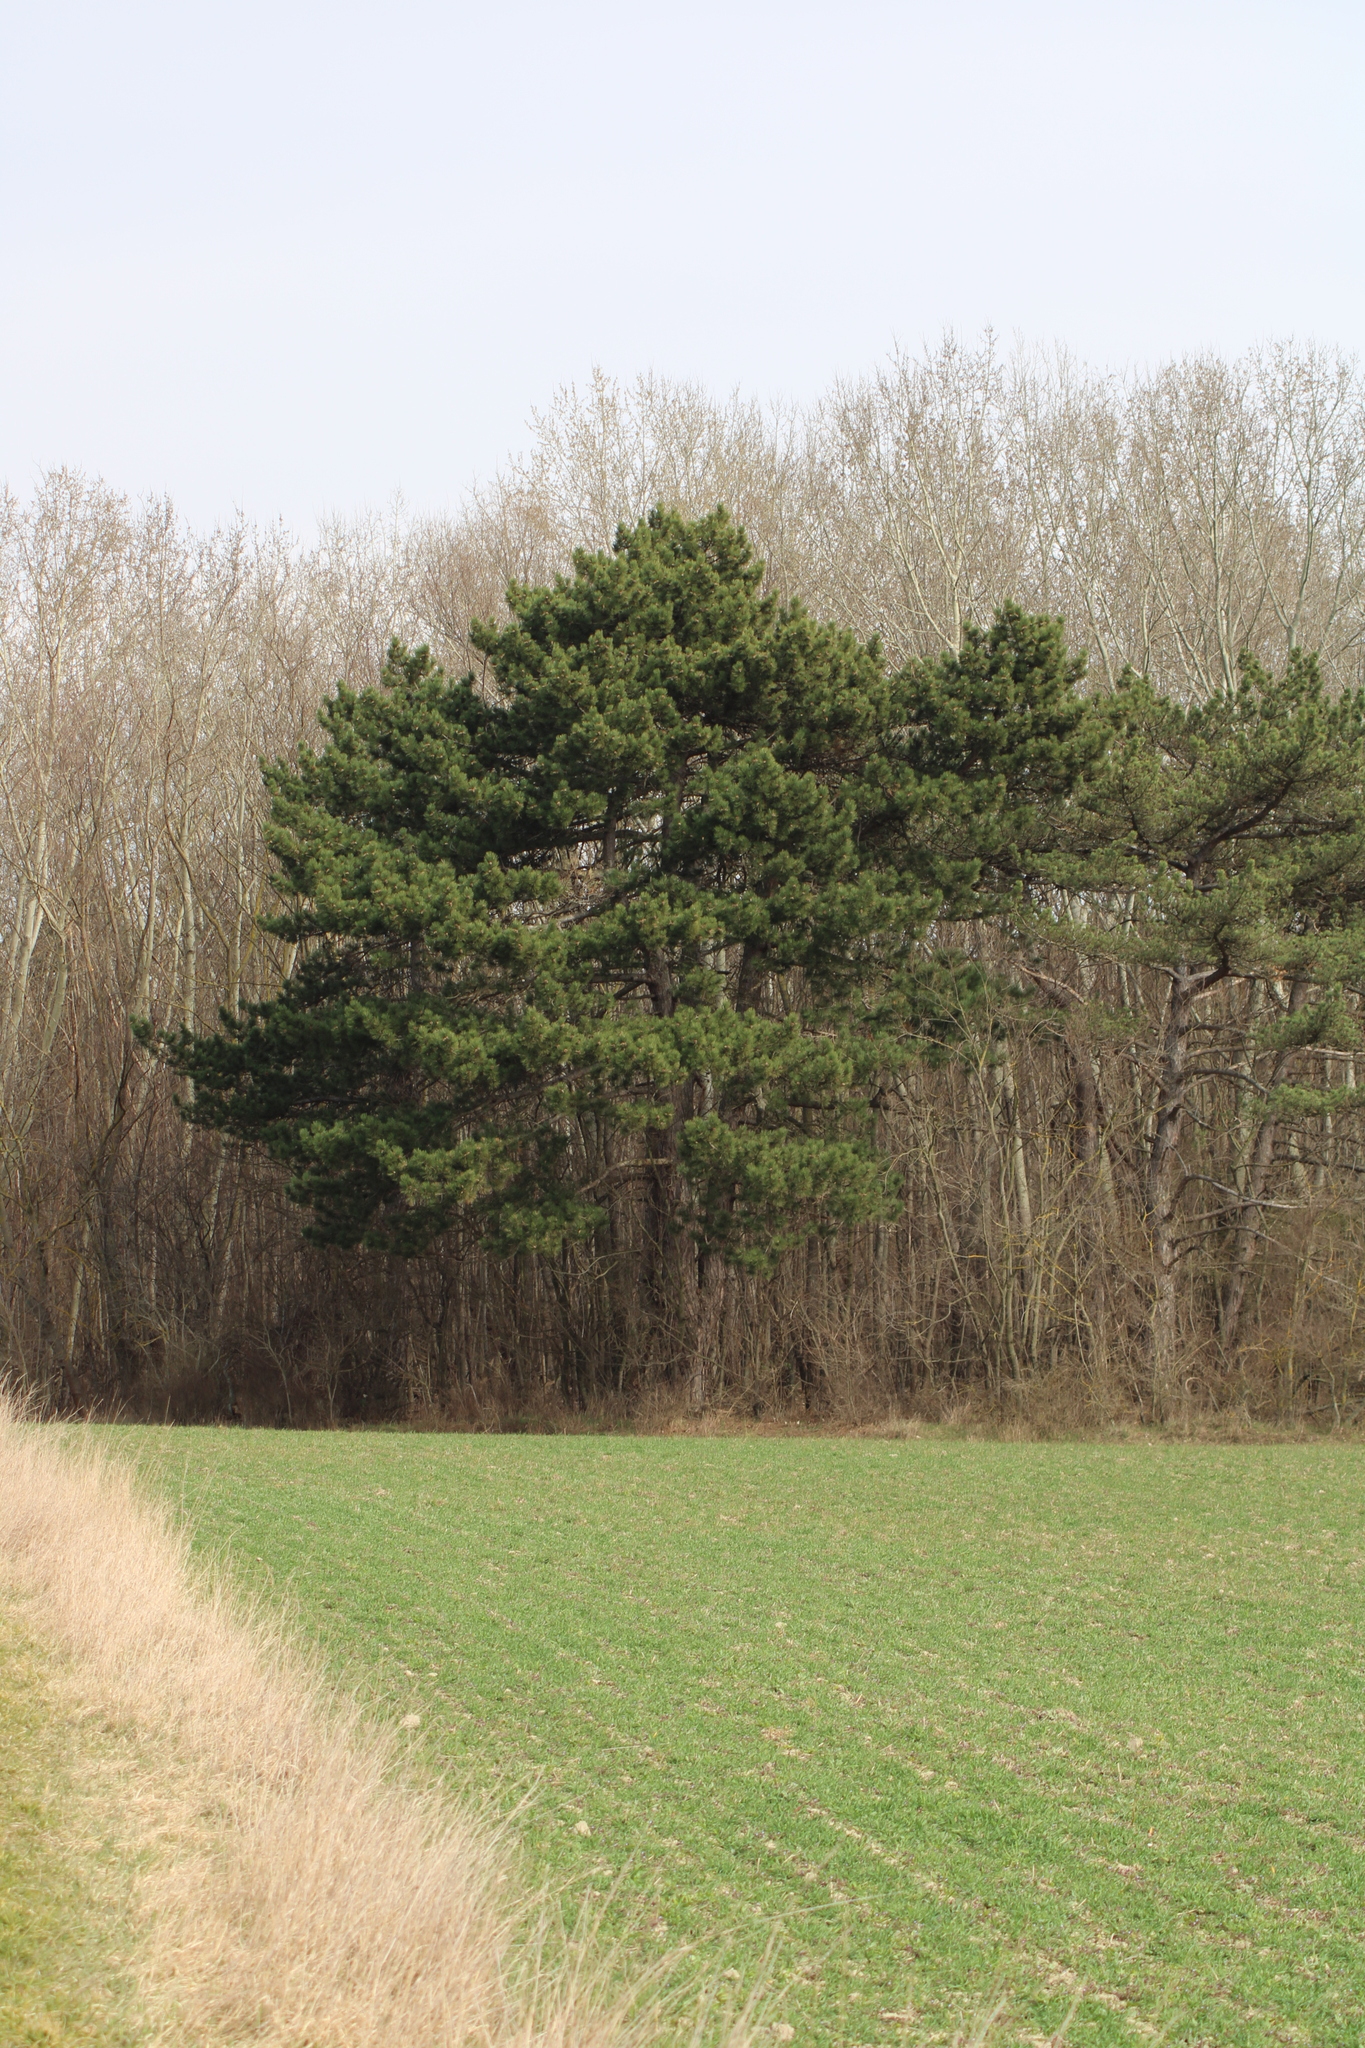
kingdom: Plantae
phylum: Tracheophyta
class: Pinopsida
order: Pinales
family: Pinaceae
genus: Pinus
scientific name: Pinus nigra
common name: Austrian pine
